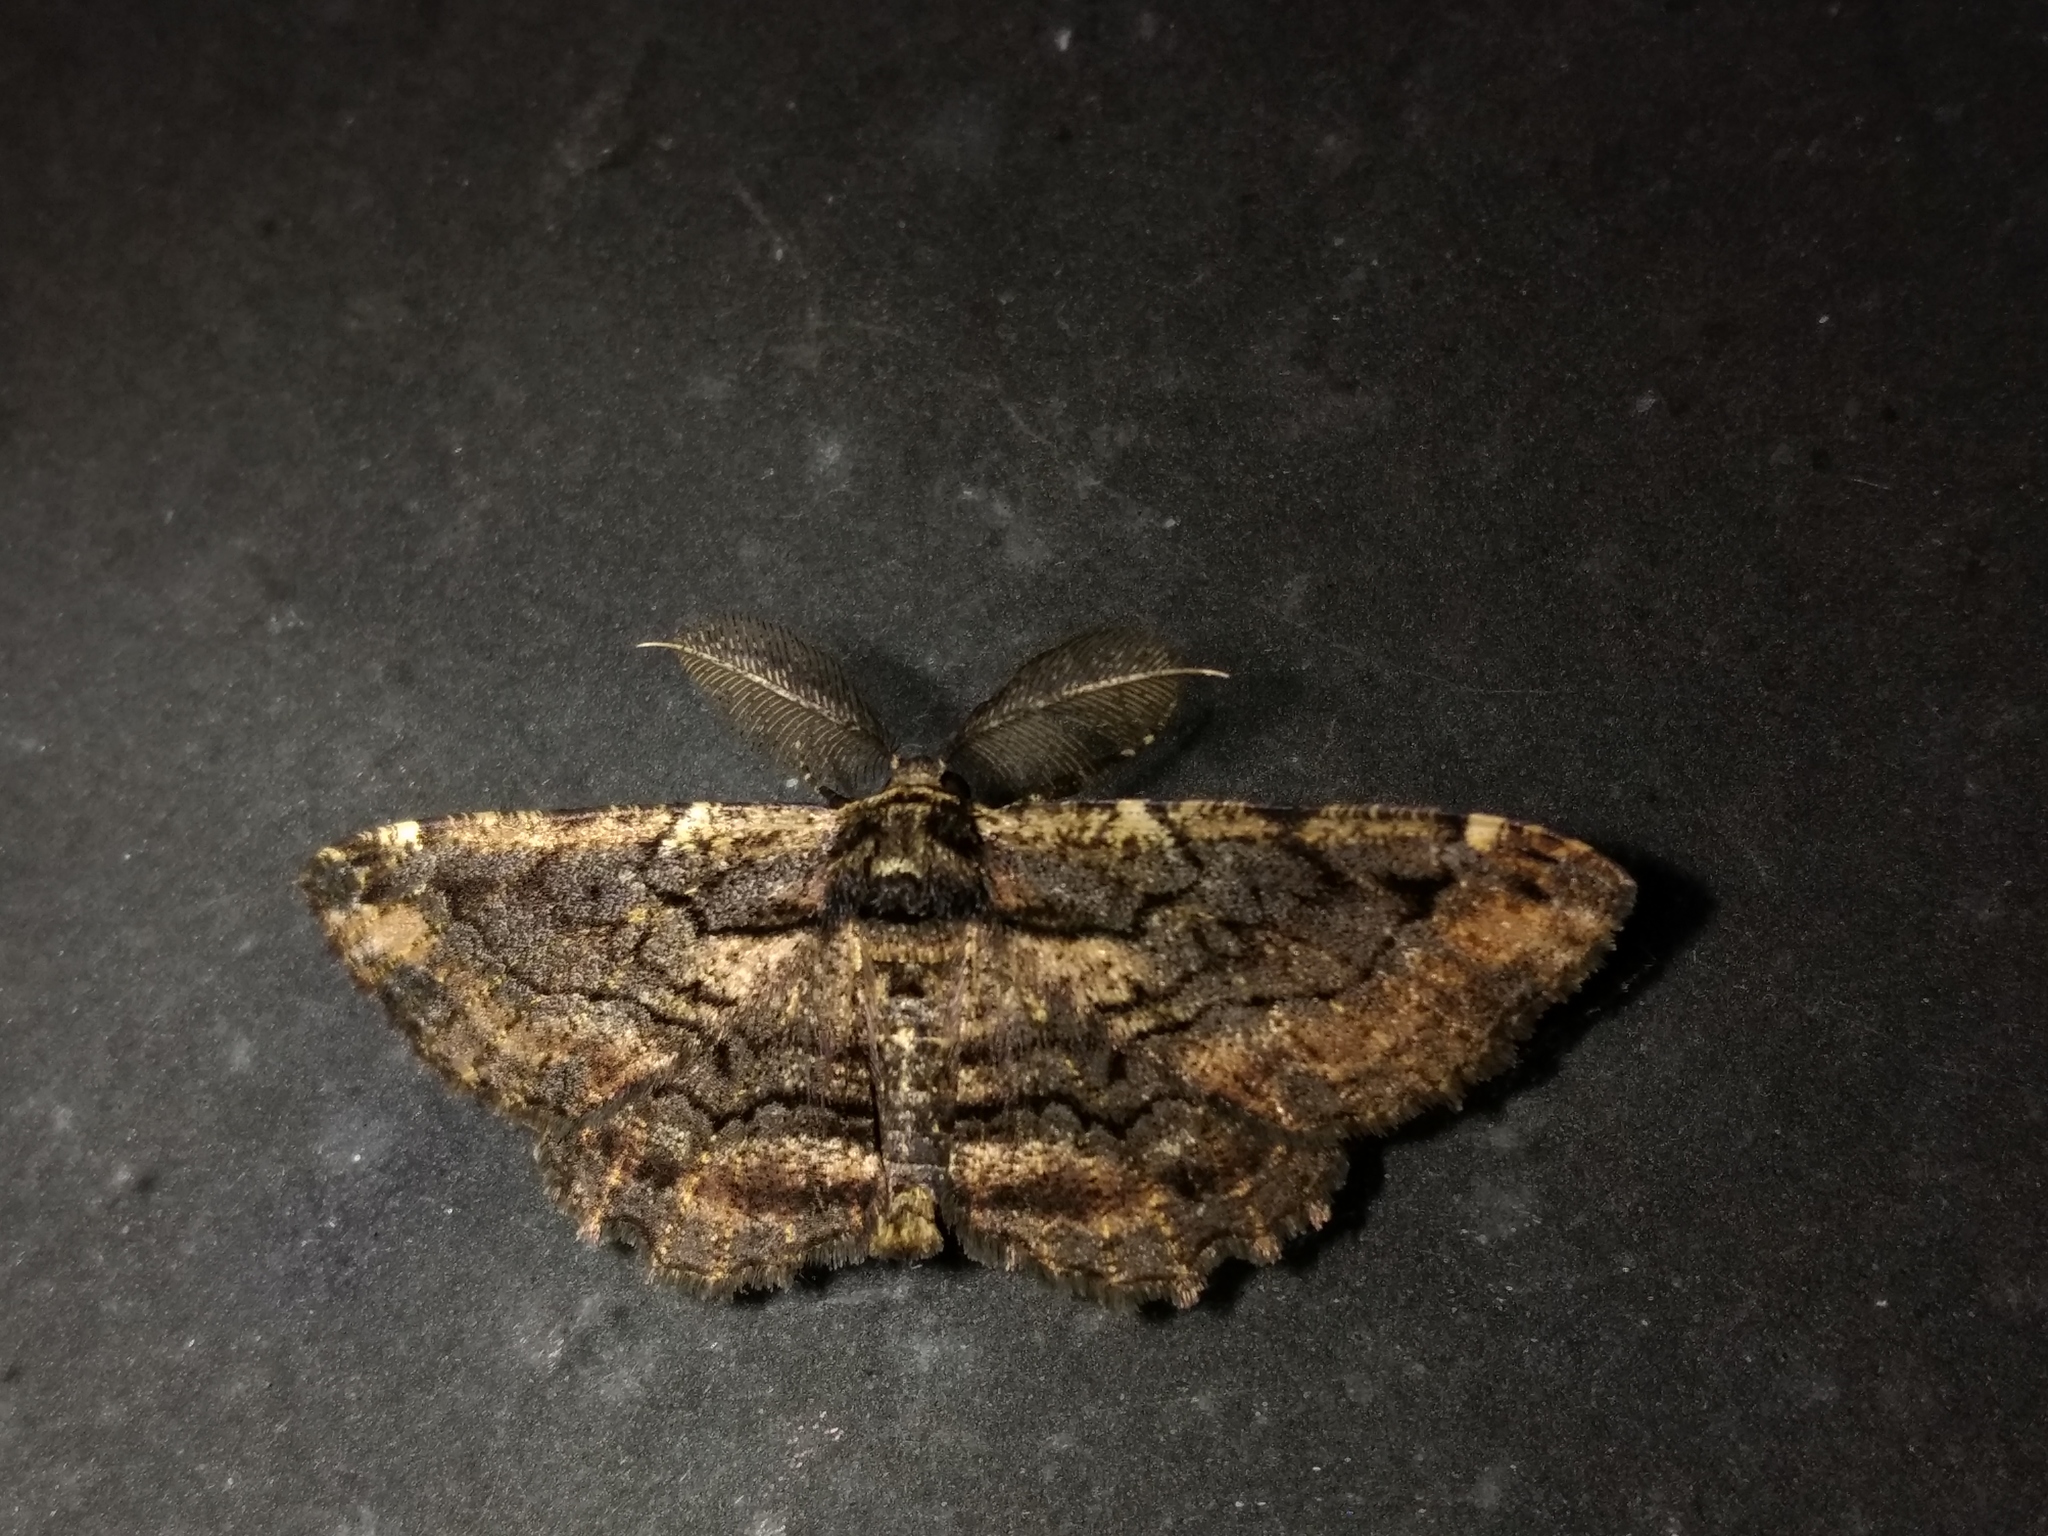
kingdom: Animalia
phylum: Arthropoda
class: Insecta
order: Lepidoptera
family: Geometridae
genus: Pholodes
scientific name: Pholodes sinistraria
